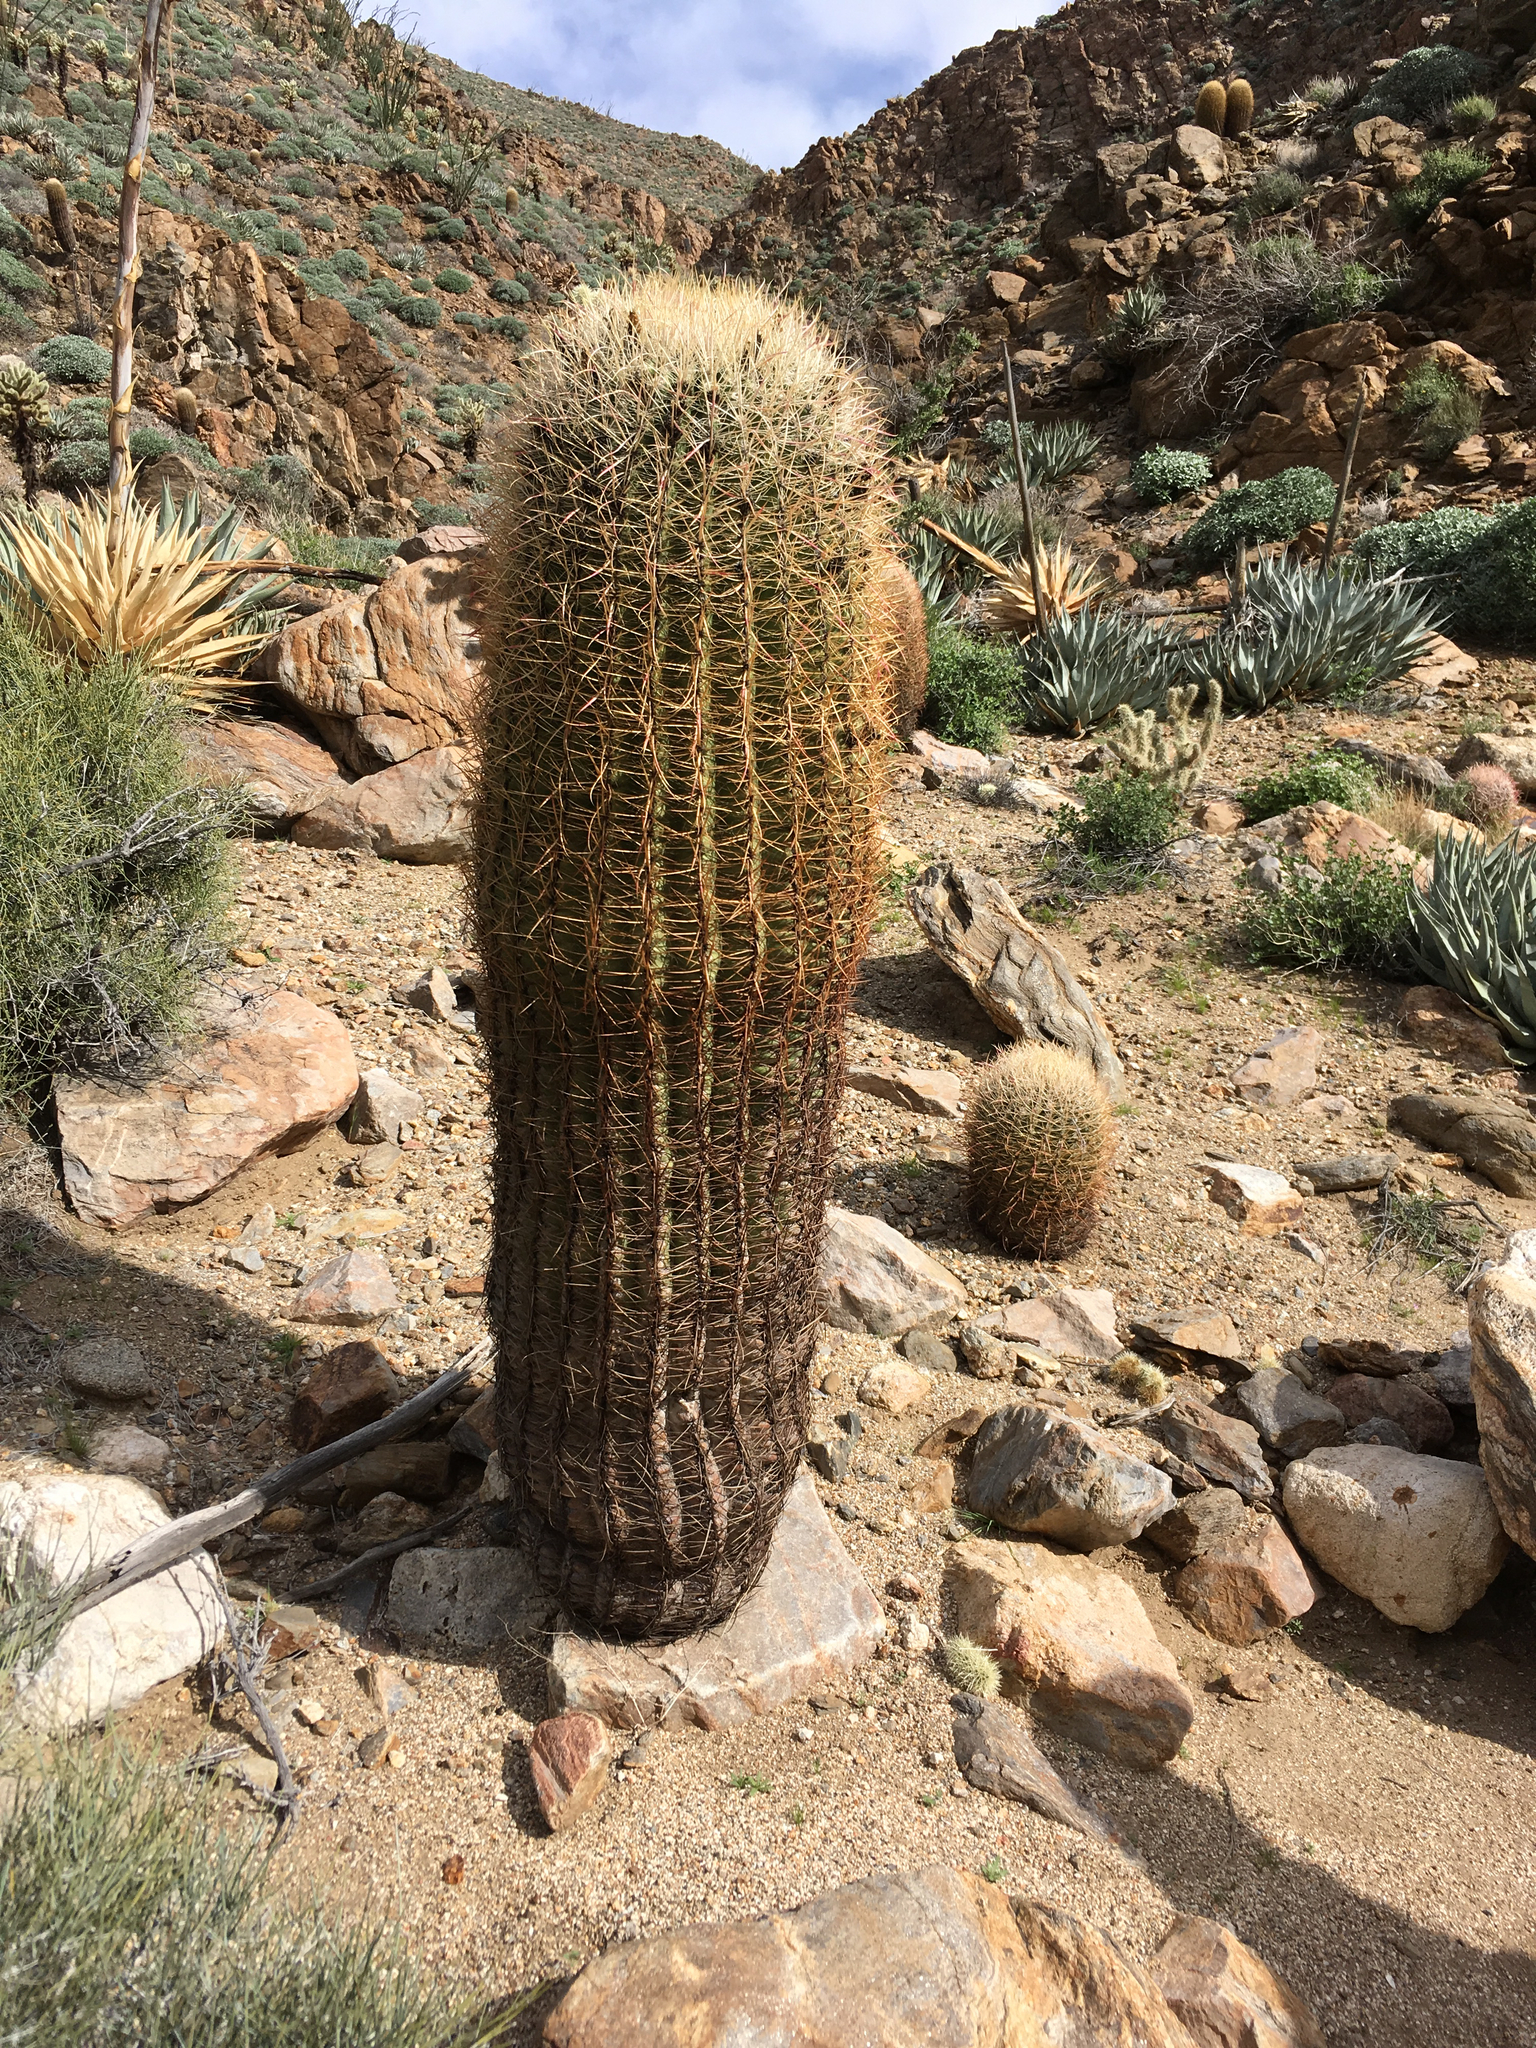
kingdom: Plantae
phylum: Tracheophyta
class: Magnoliopsida
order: Caryophyllales
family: Cactaceae
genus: Ferocactus
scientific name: Ferocactus cylindraceus
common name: California barrel cactus
